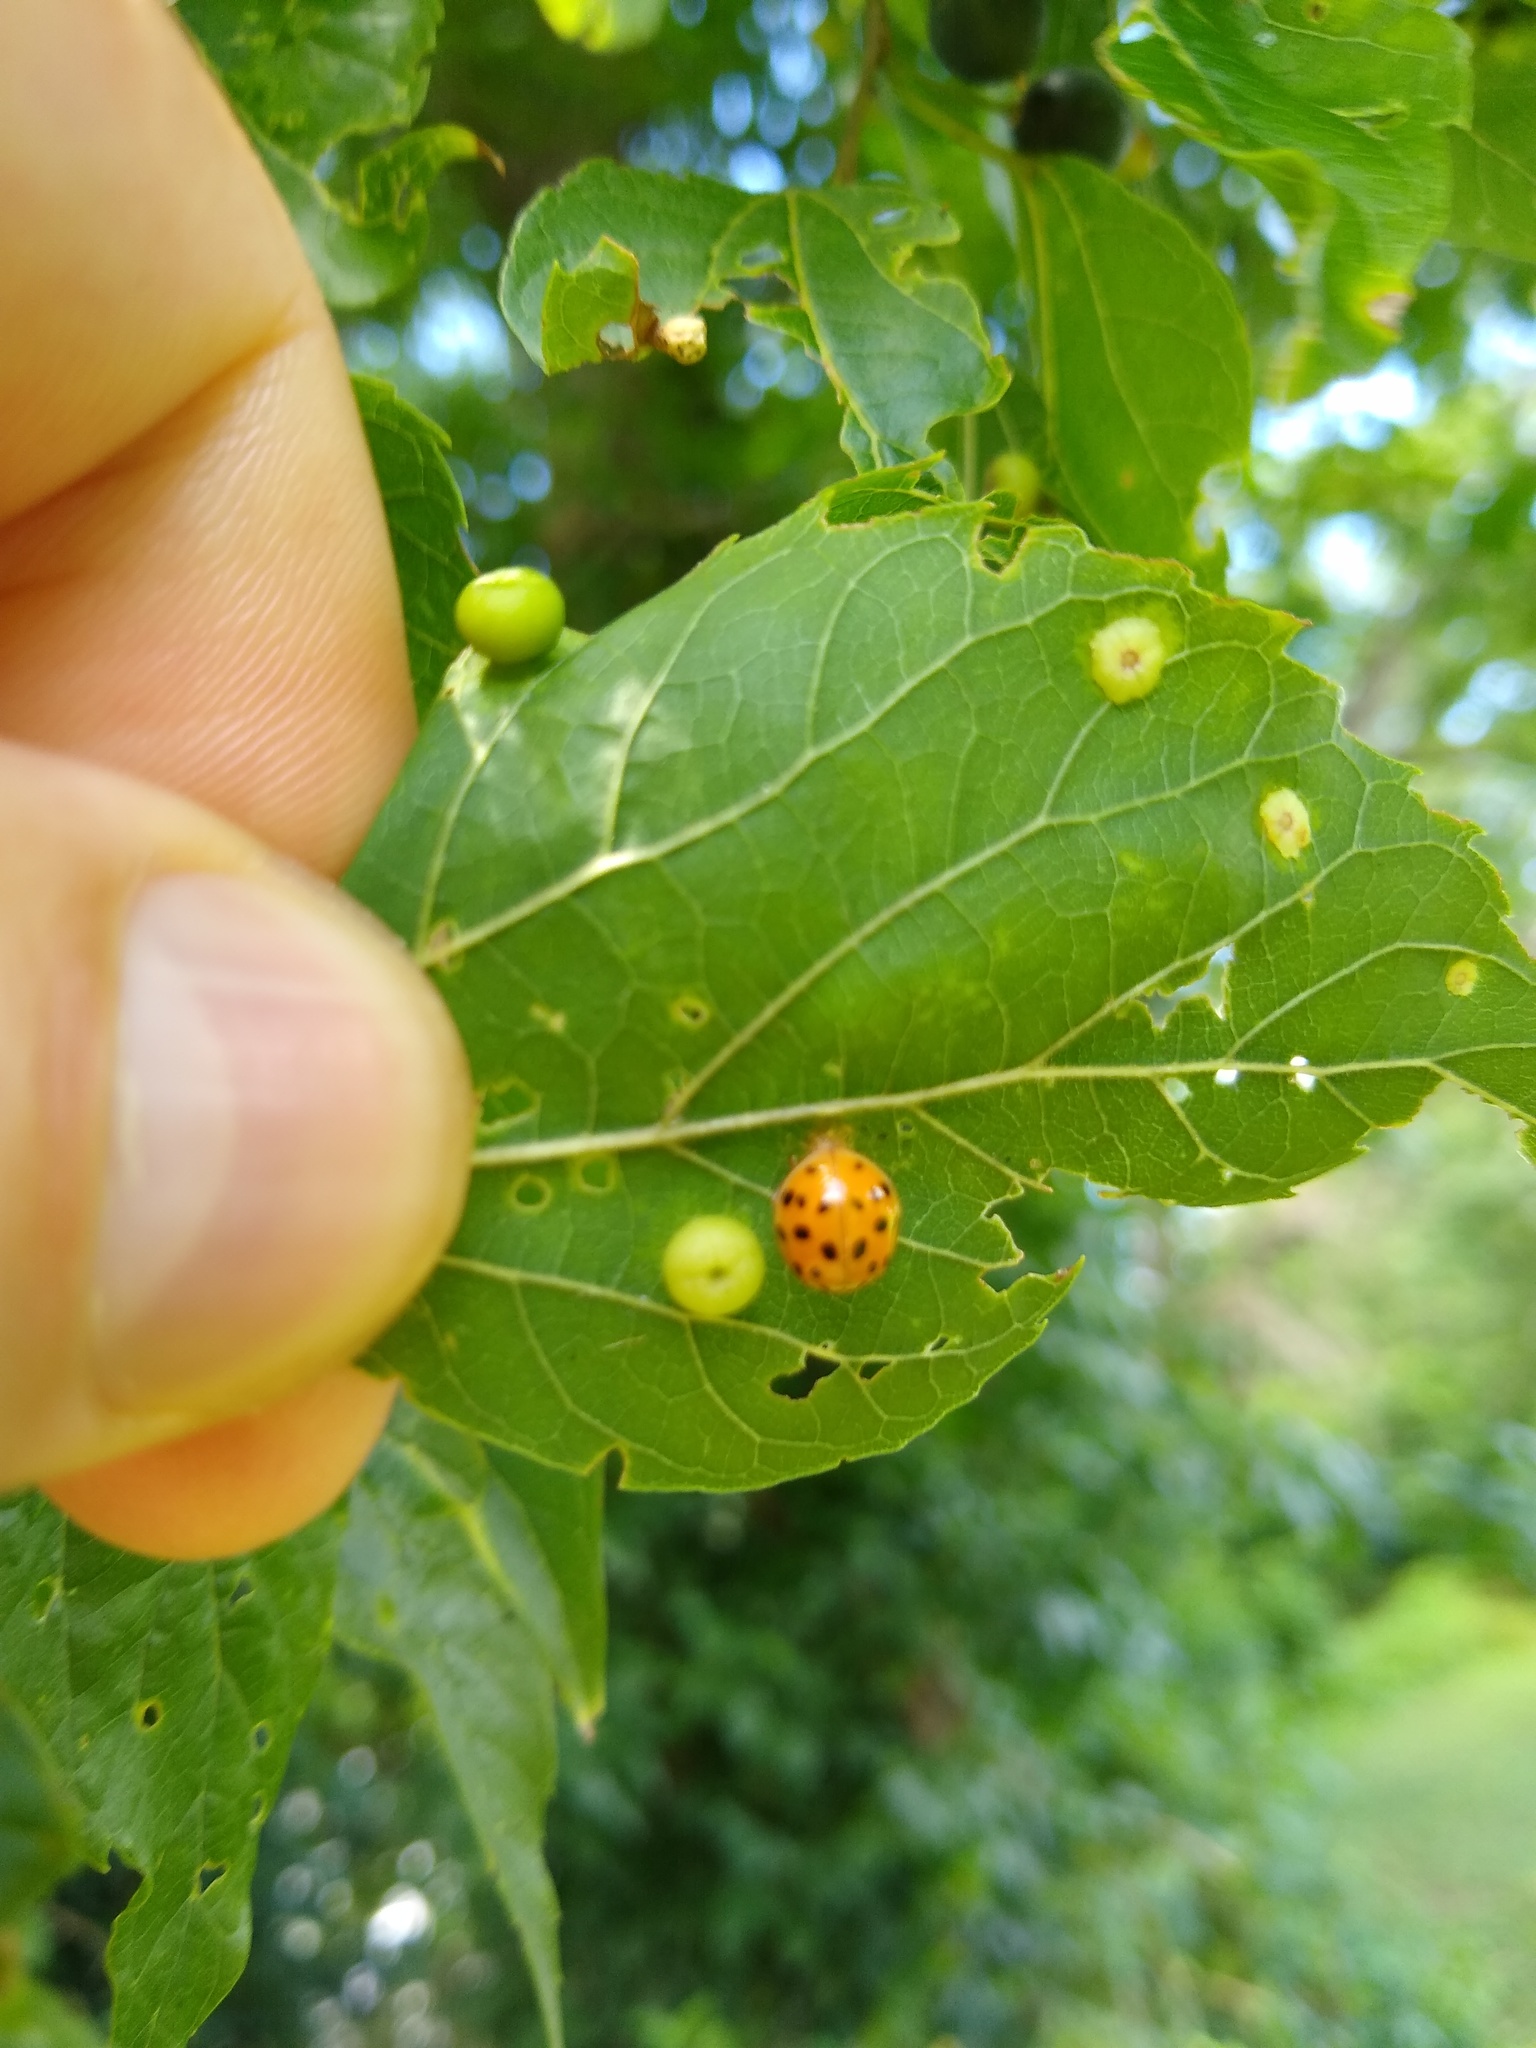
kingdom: Animalia
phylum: Arthropoda
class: Insecta
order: Coleoptera
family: Coccinellidae
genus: Harmonia
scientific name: Harmonia axyridis
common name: Harlequin ladybird
